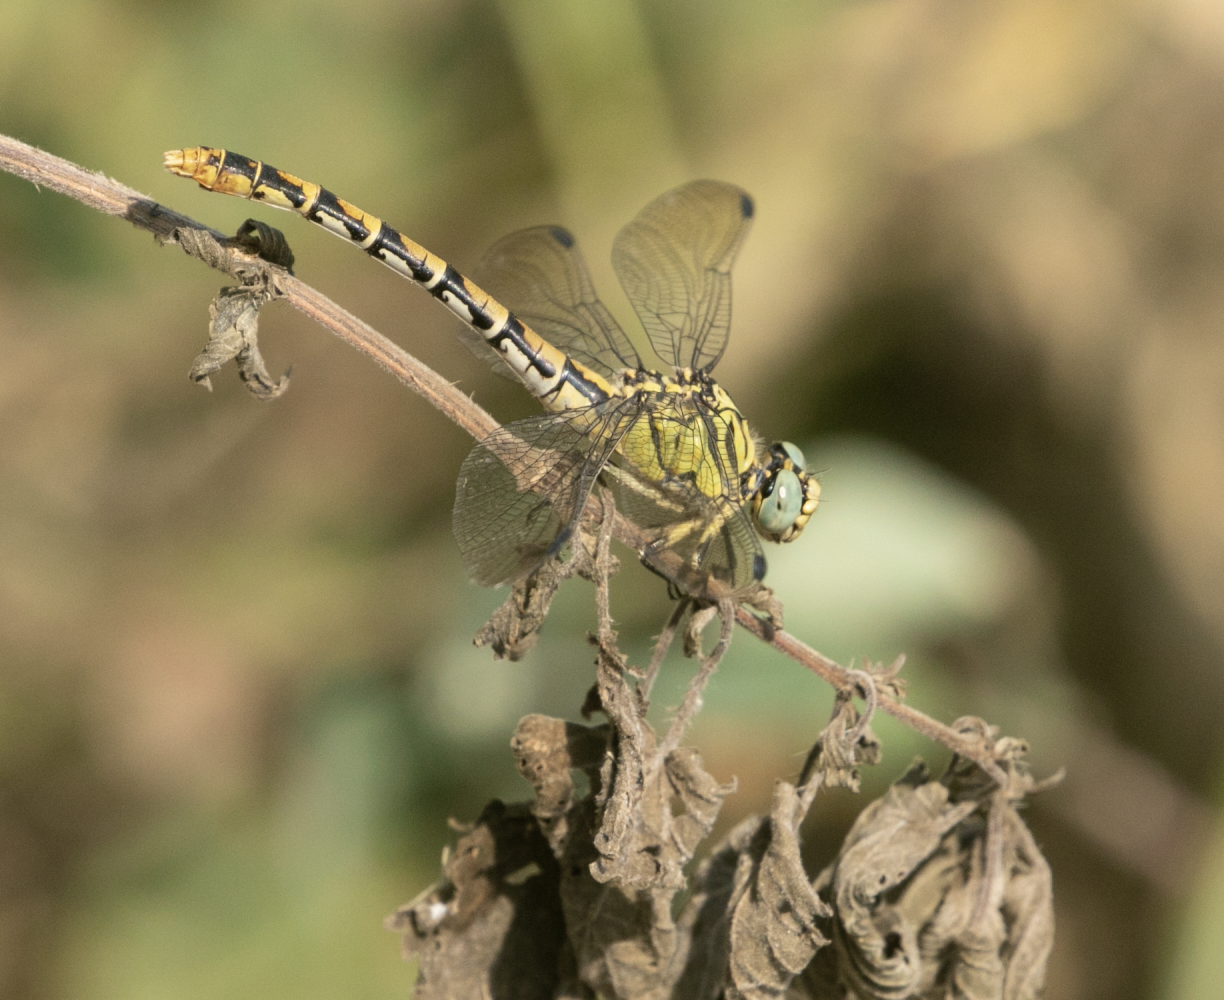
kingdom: Animalia
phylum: Arthropoda
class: Insecta
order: Odonata
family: Gomphidae
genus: Onychogomphus
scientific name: Onychogomphus forcipatus
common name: Small pincertail
